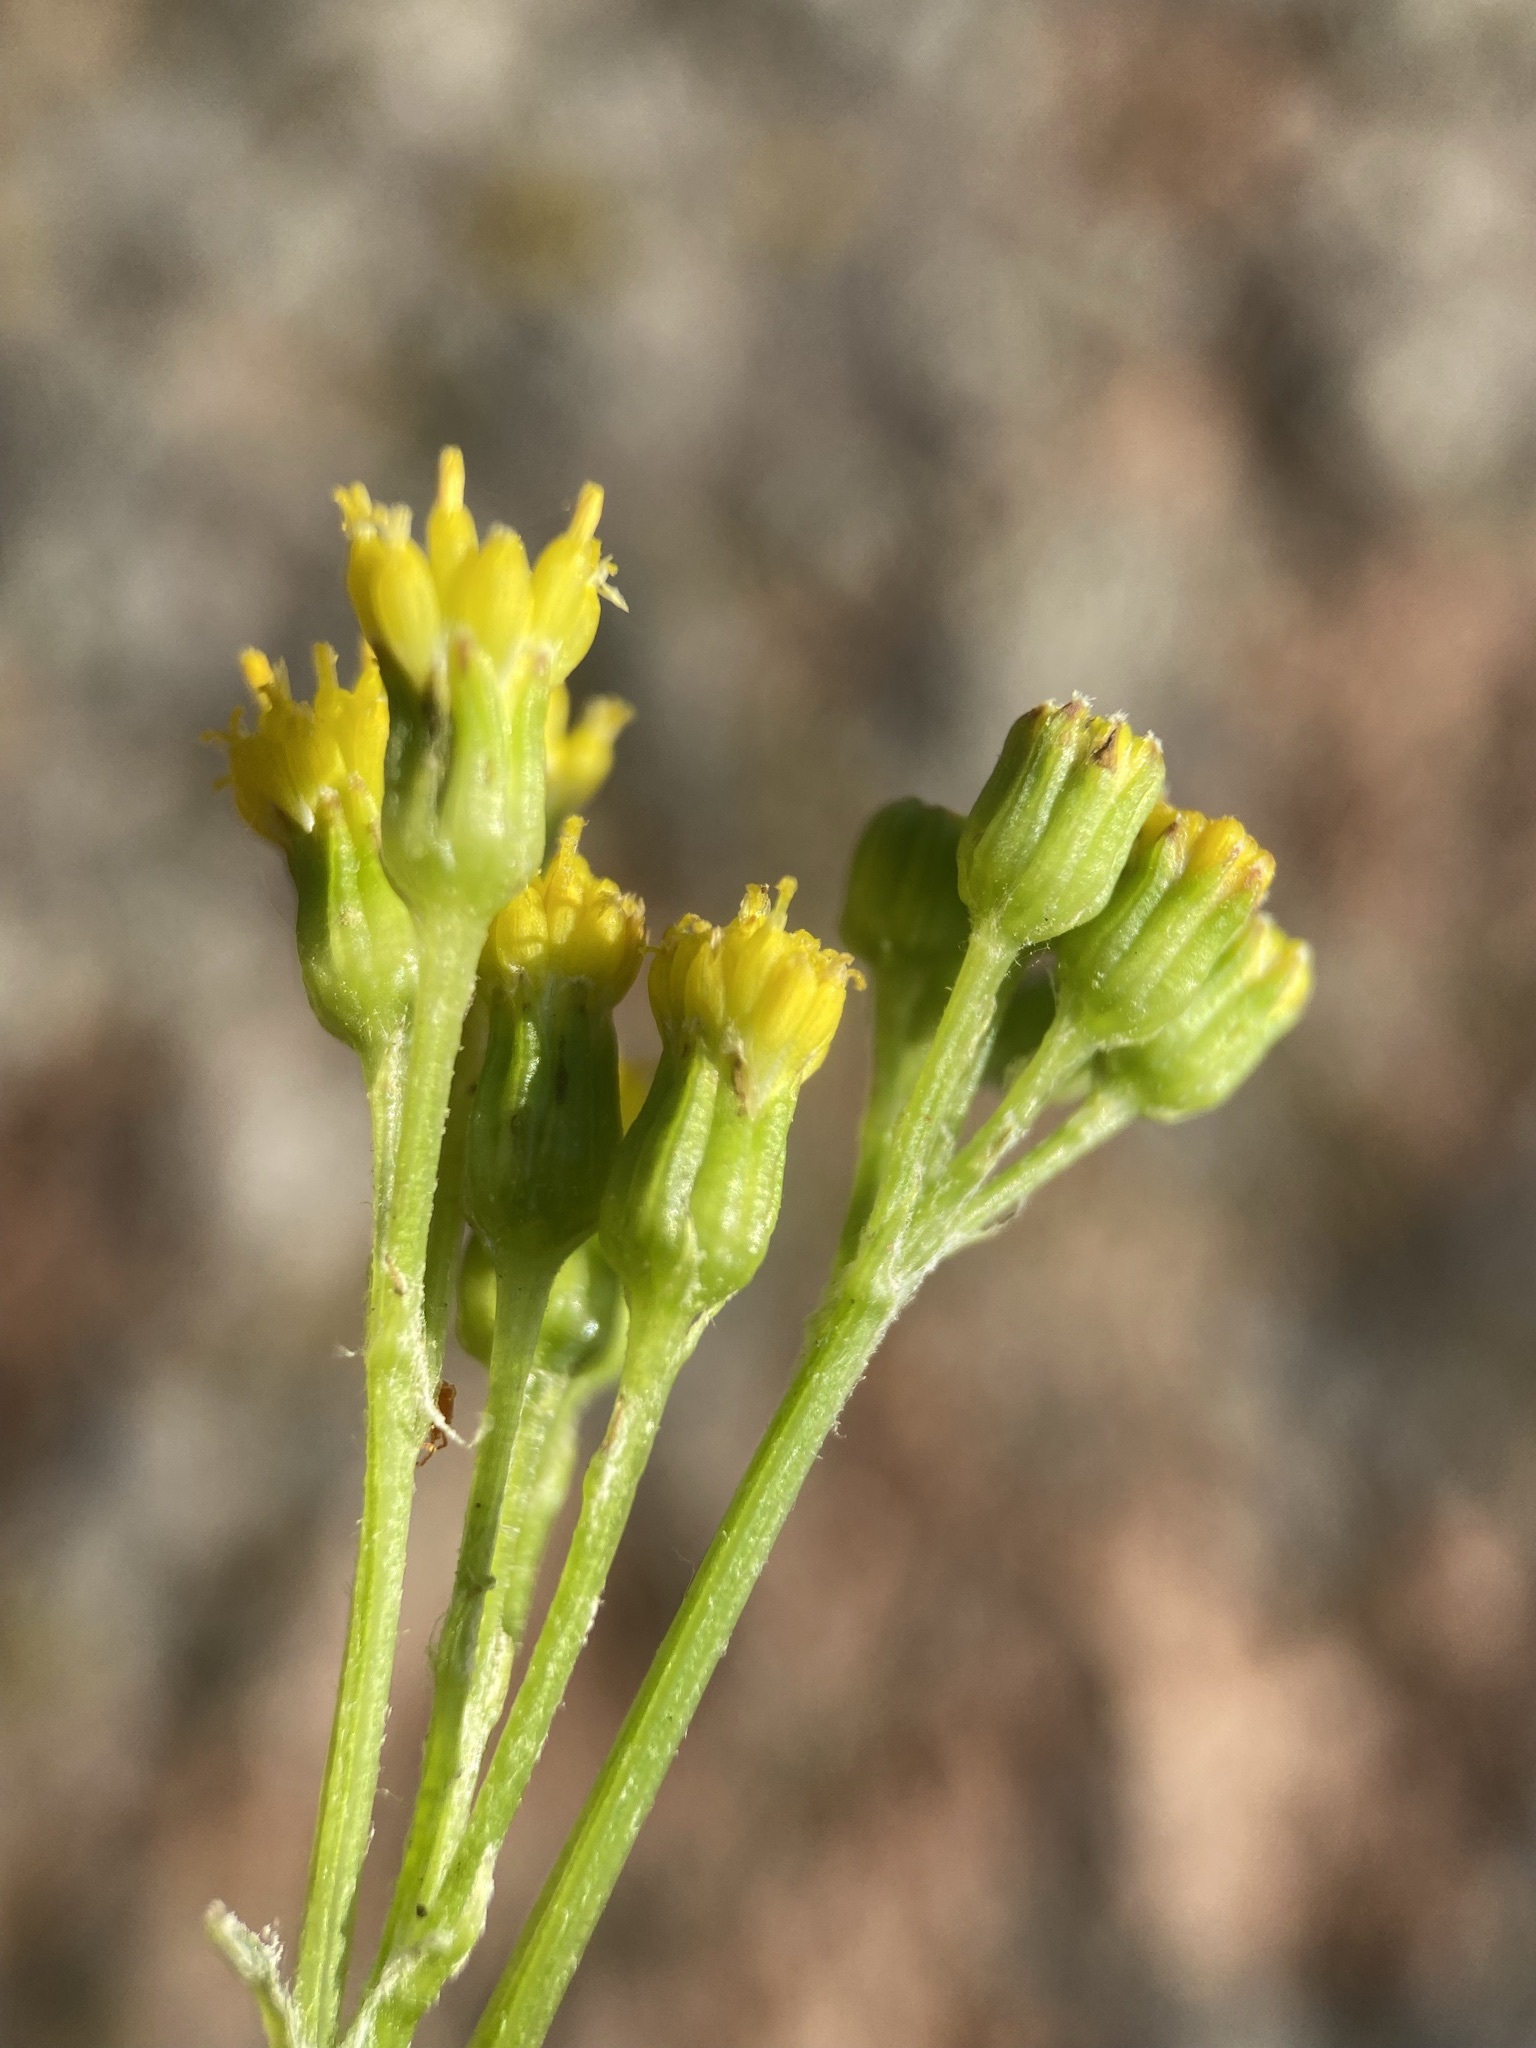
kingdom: Plantae
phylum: Tracheophyta
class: Magnoliopsida
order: Asterales
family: Asteraceae
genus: Senecio
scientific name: Senecio rapifolius
